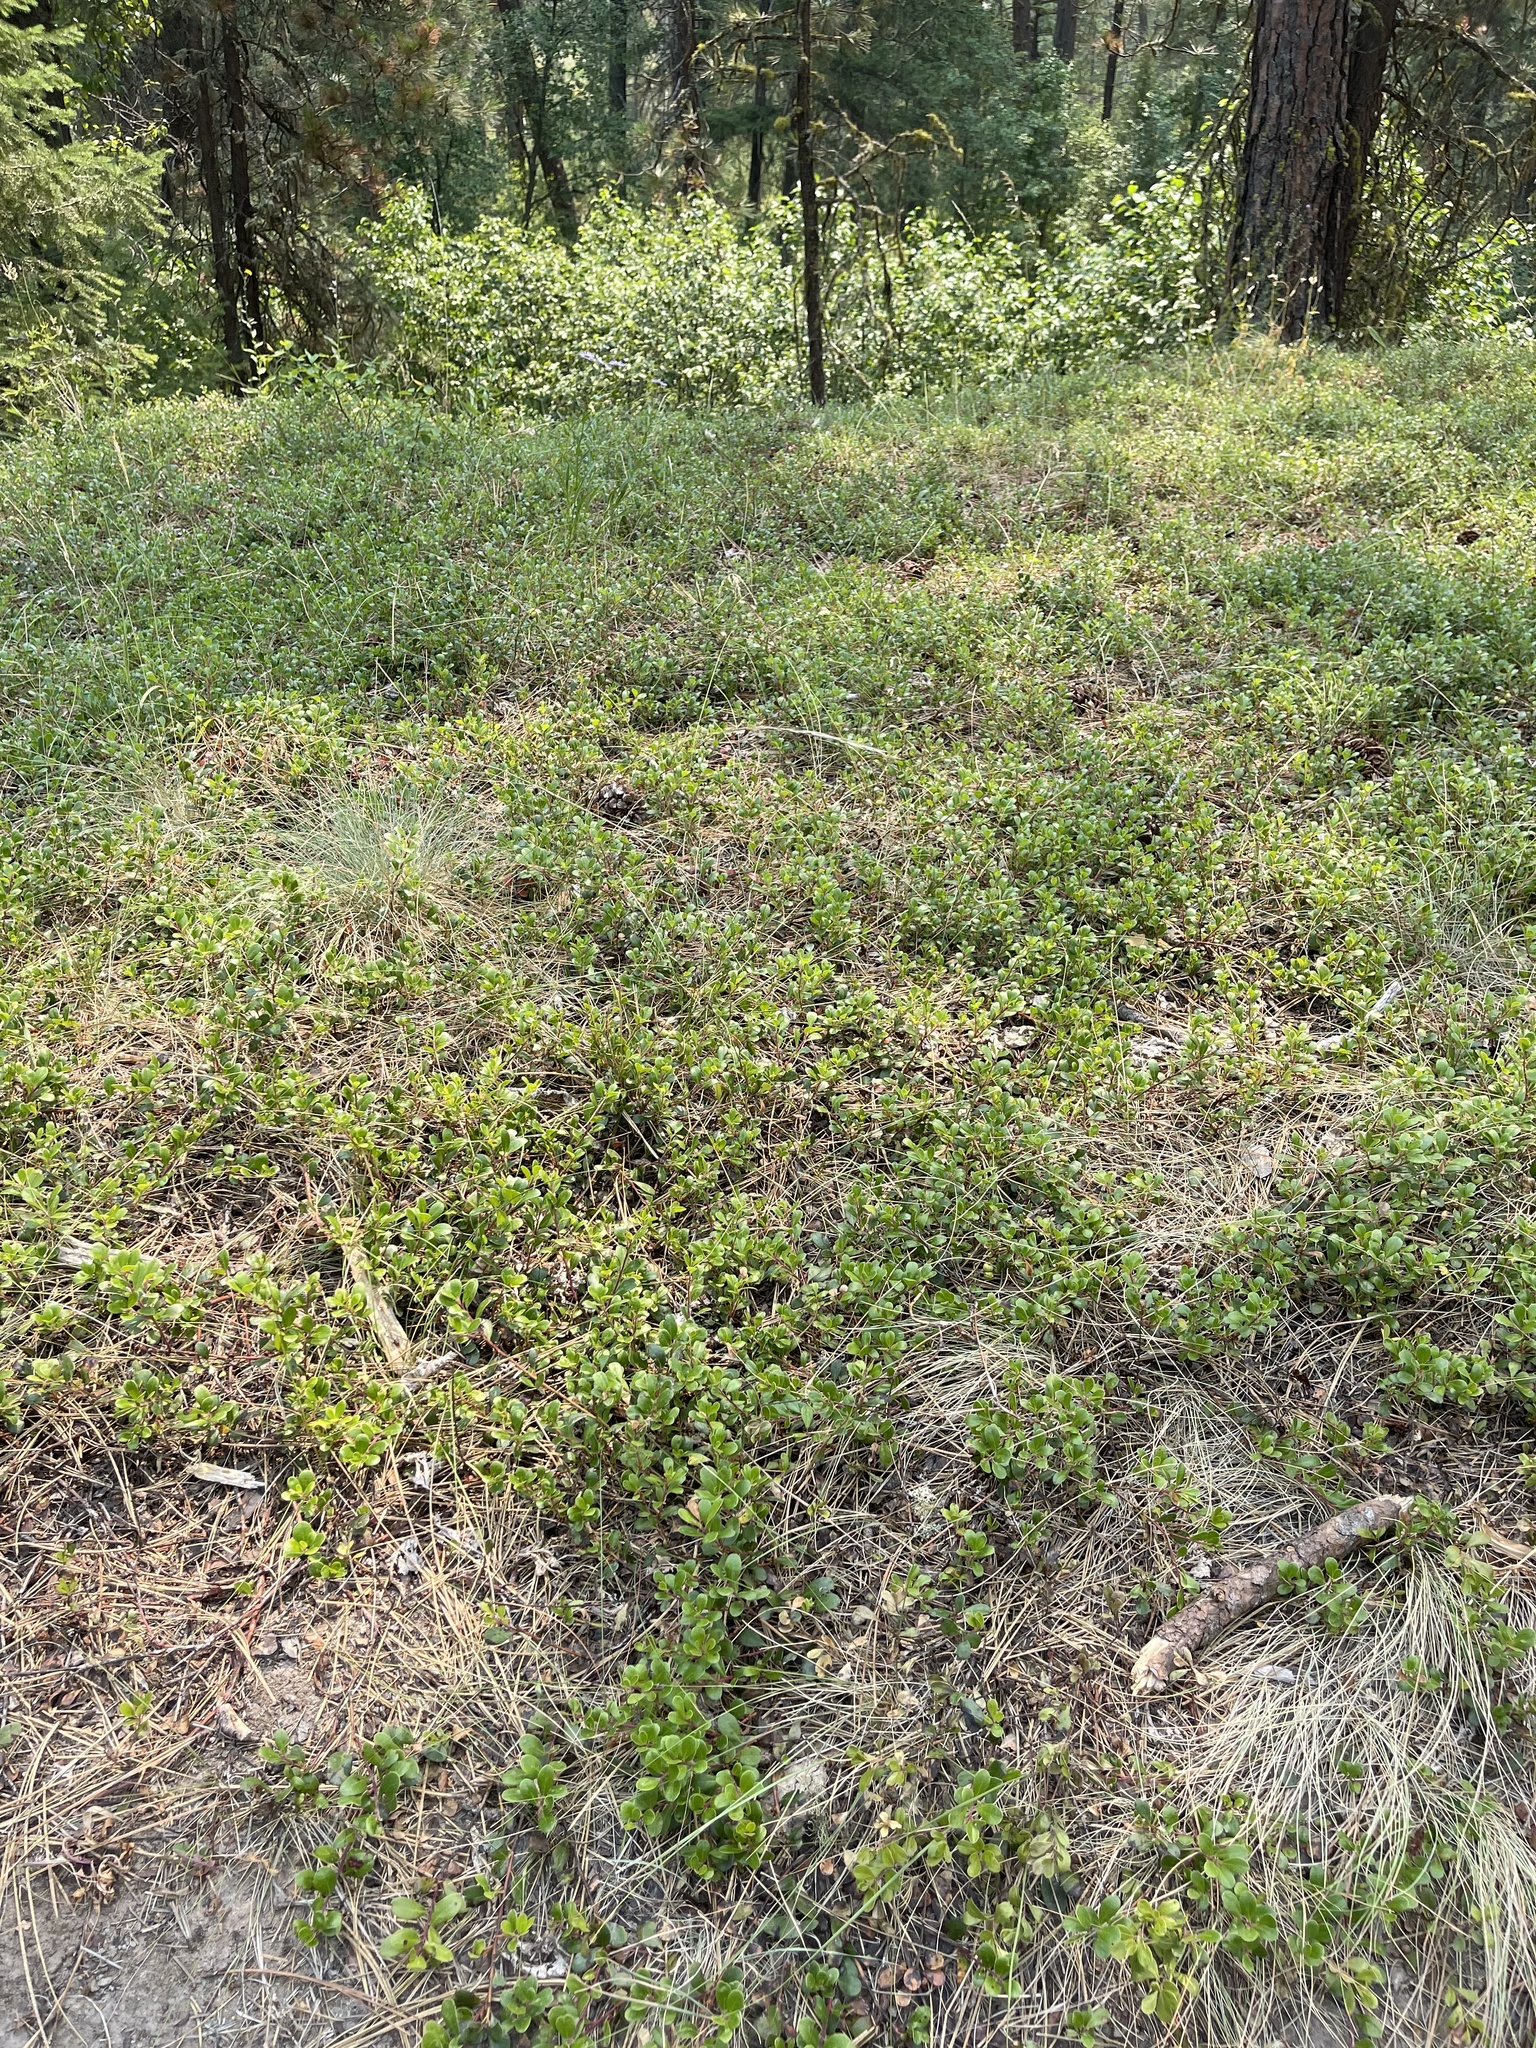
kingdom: Plantae
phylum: Tracheophyta
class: Magnoliopsida
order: Ericales
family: Ericaceae
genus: Arctostaphylos
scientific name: Arctostaphylos uva-ursi
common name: Bearberry
